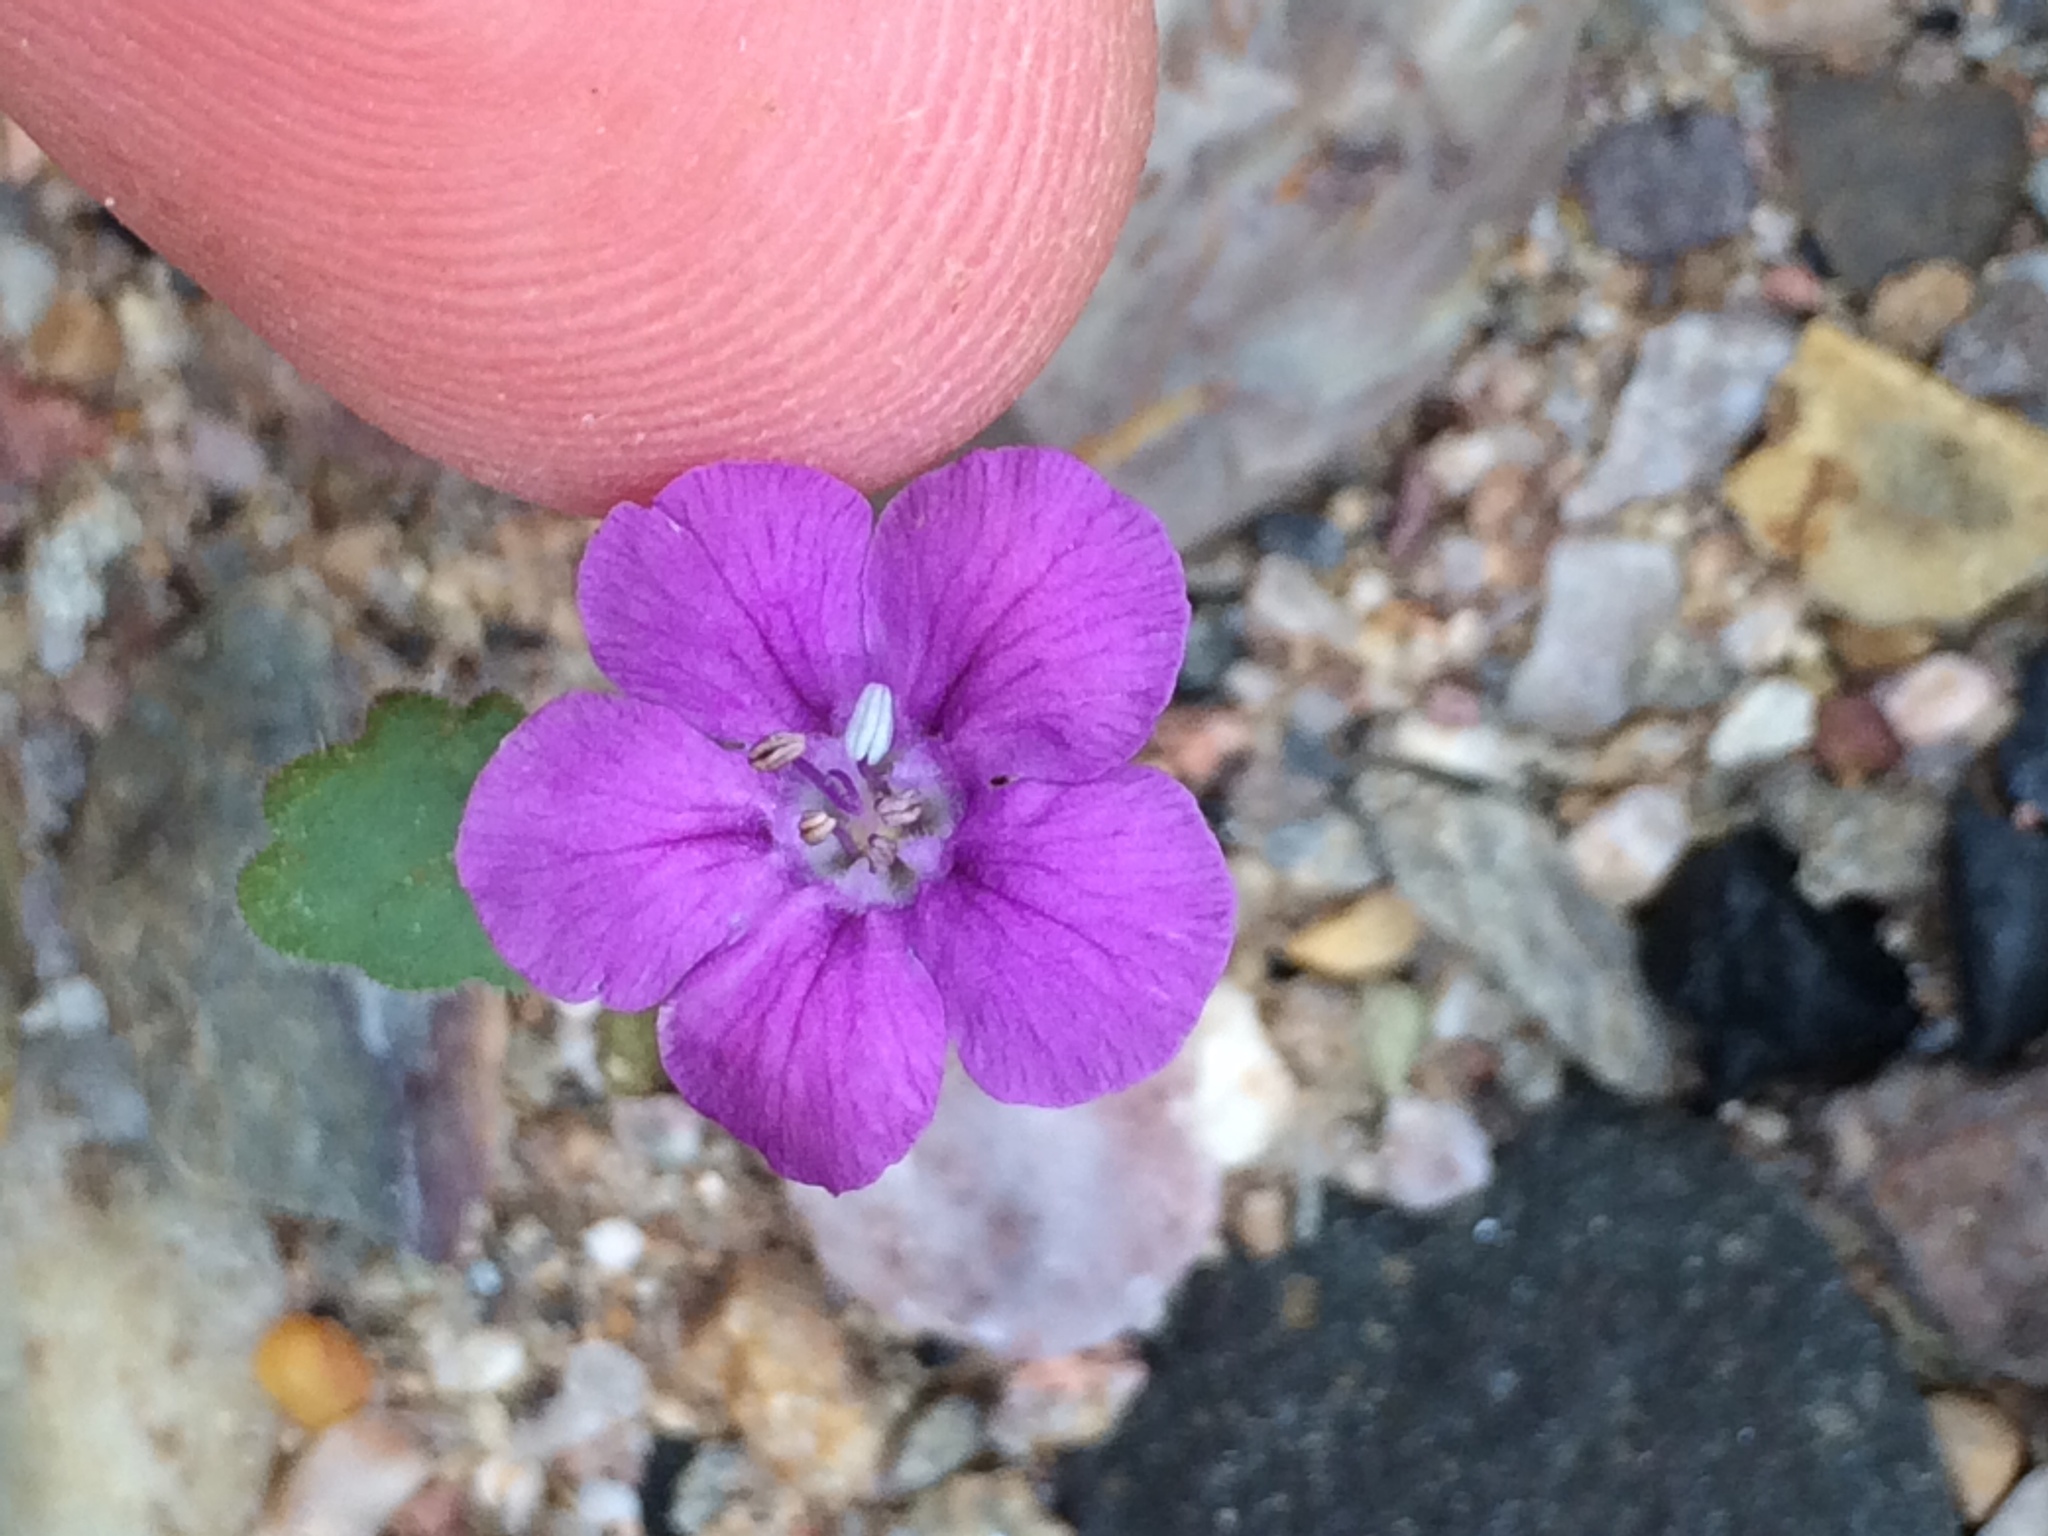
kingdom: Plantae
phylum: Tracheophyta
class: Magnoliopsida
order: Boraginales
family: Hydrophyllaceae
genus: Phacelia
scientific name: Phacelia calthifolia
